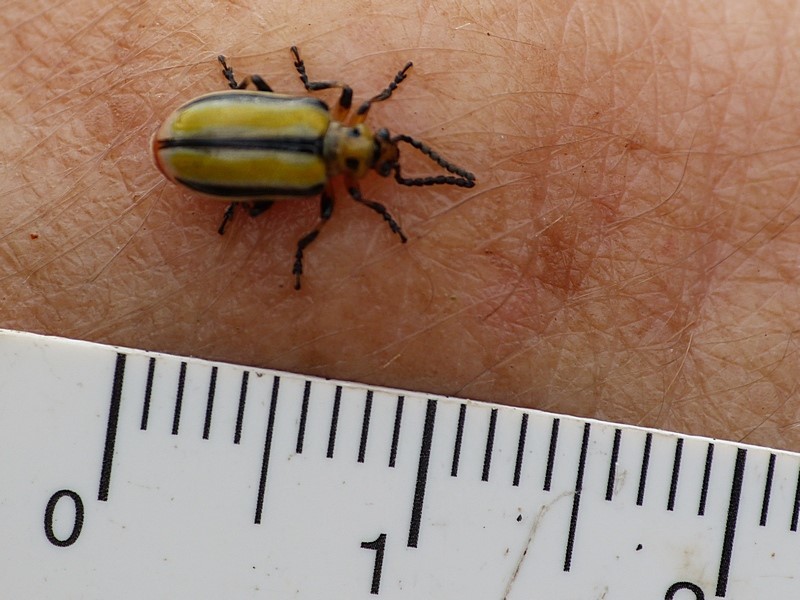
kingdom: Animalia
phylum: Arthropoda
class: Insecta
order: Coleoptera
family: Chrysomelidae
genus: Lema
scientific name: Lema daturaphila
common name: Leaf beetle
